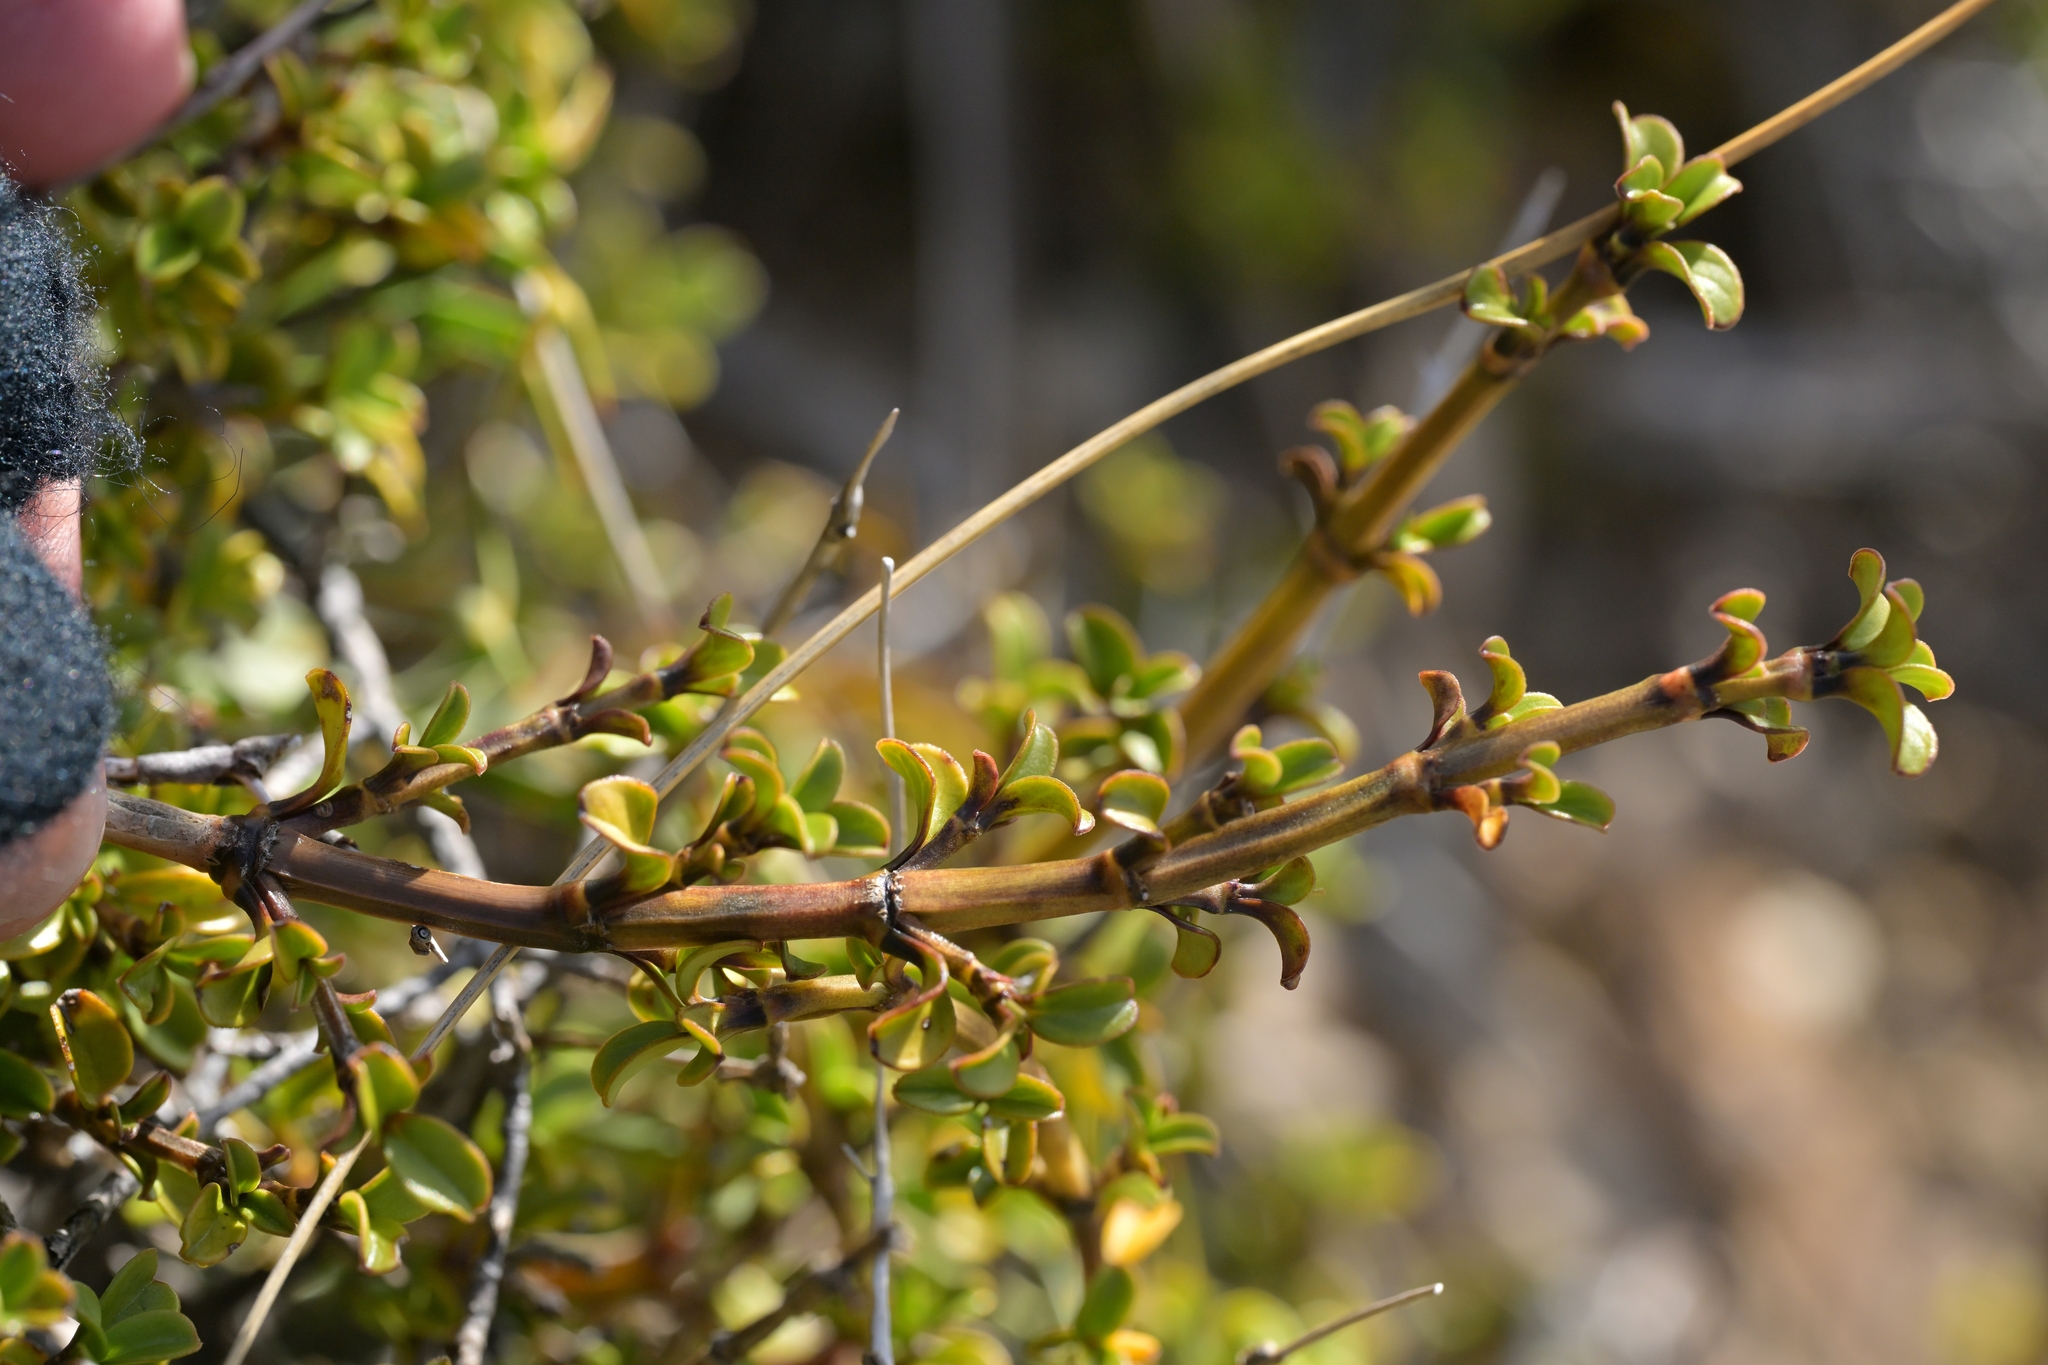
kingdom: Plantae
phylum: Tracheophyta
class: Magnoliopsida
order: Gentianales
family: Rubiaceae
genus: Coprosma
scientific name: Coprosma crenulata
